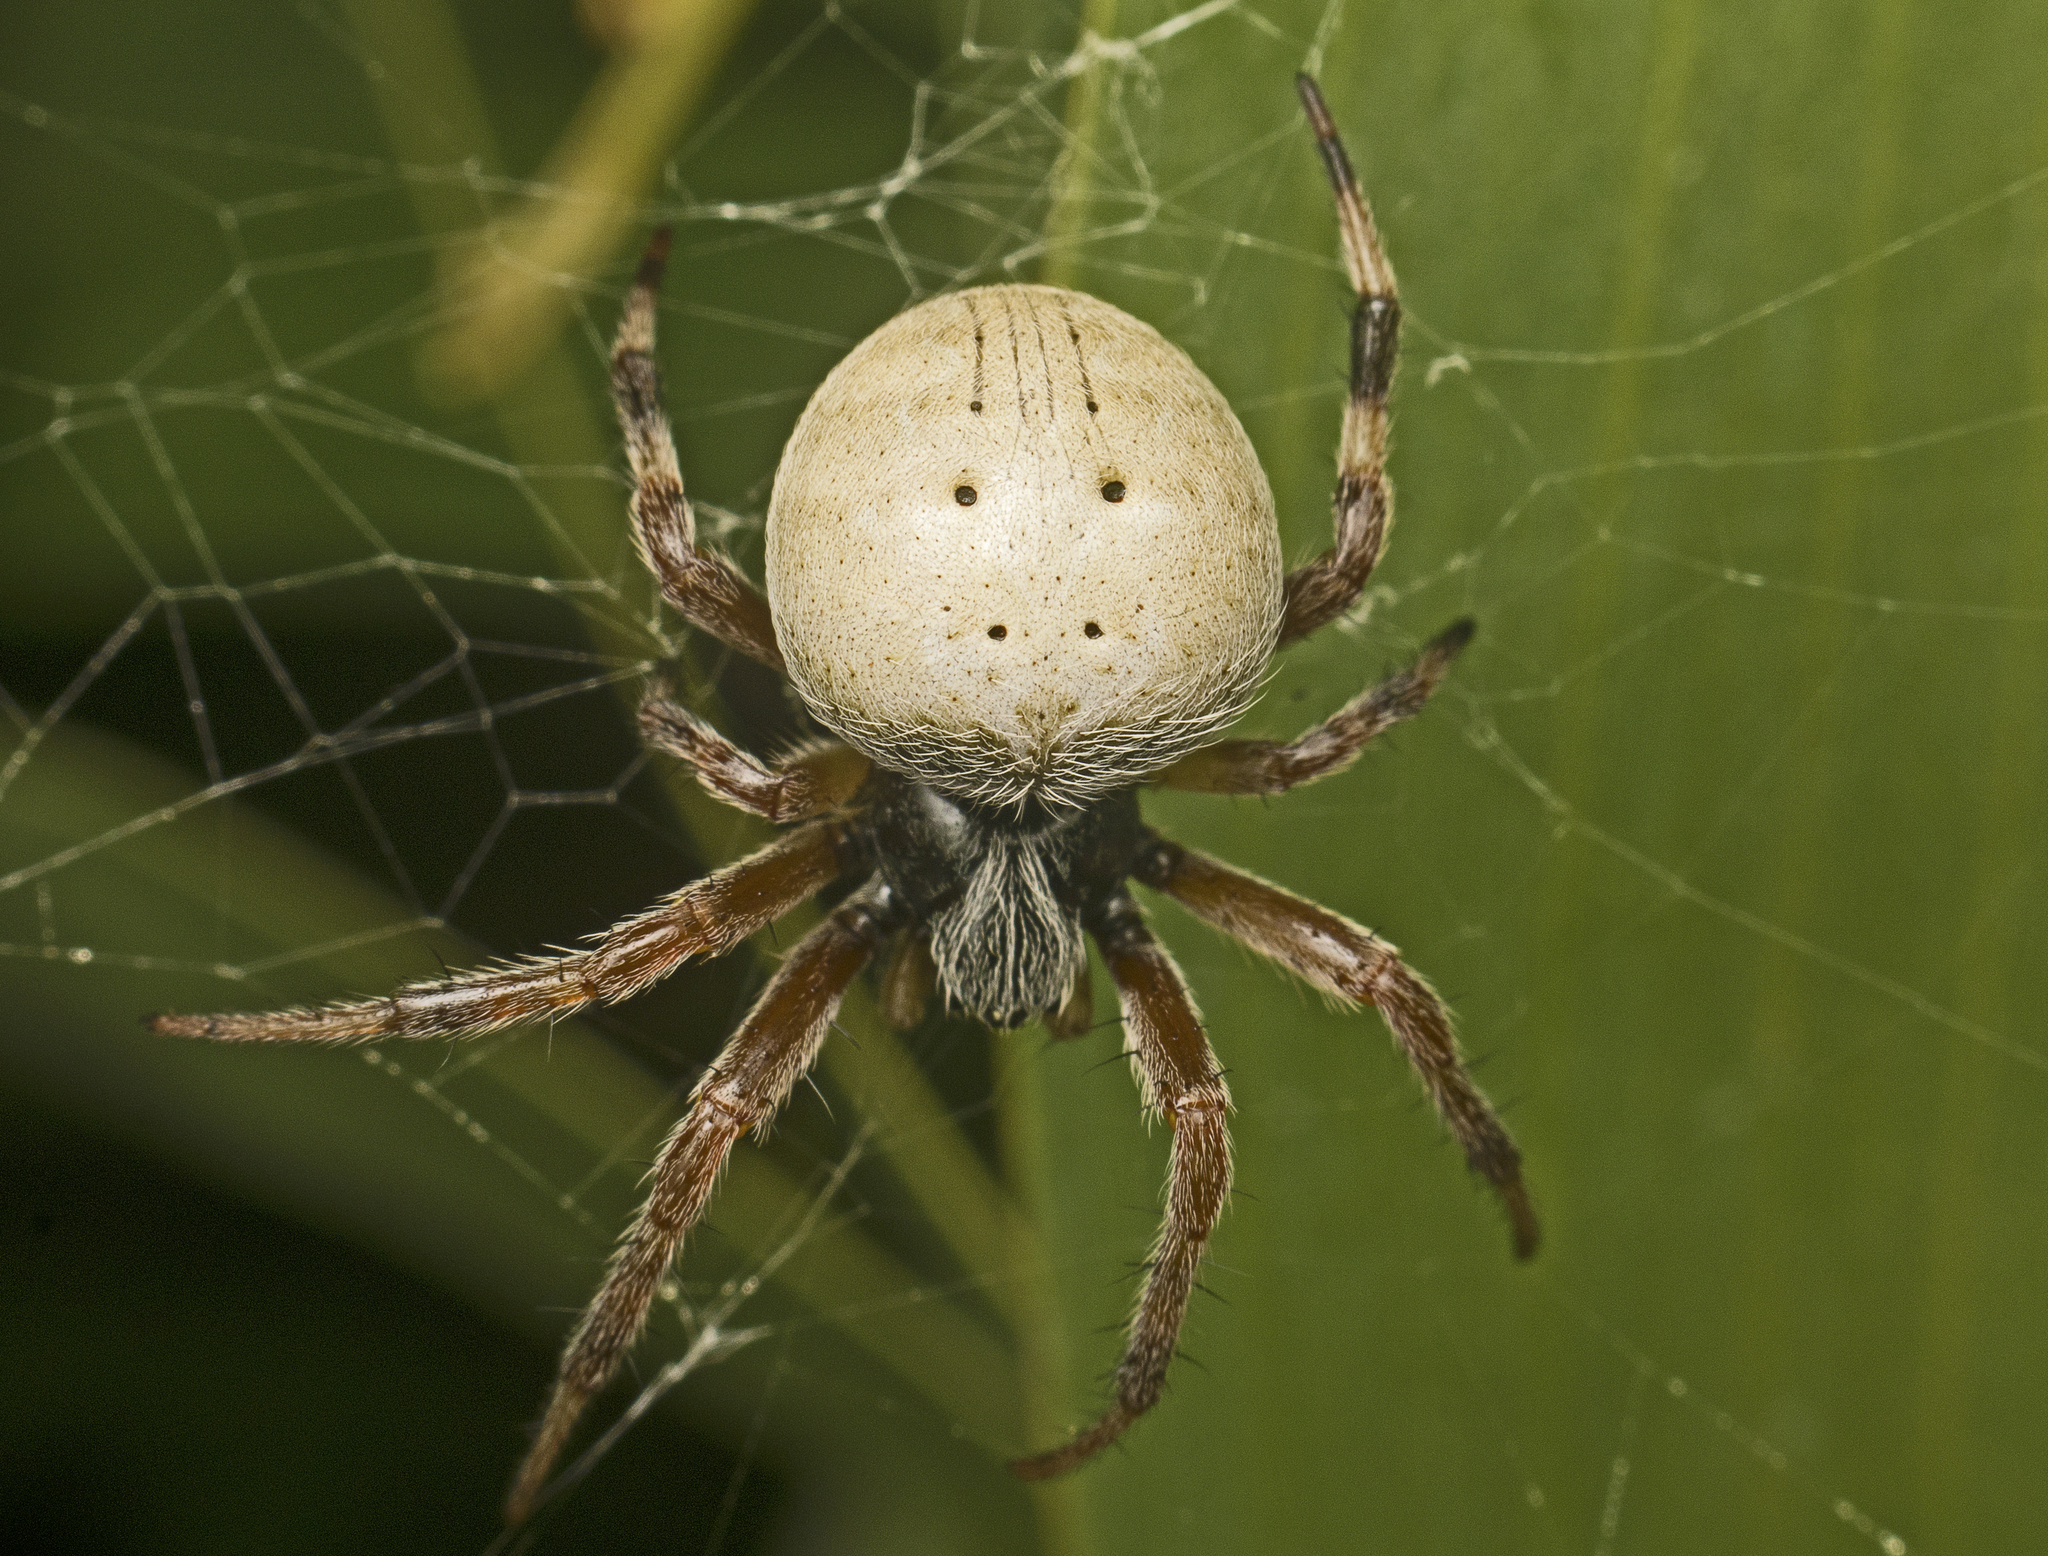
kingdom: Animalia
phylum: Arthropoda
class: Arachnida
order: Araneae
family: Araneidae
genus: Mangrovia
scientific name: Mangrovia albida
